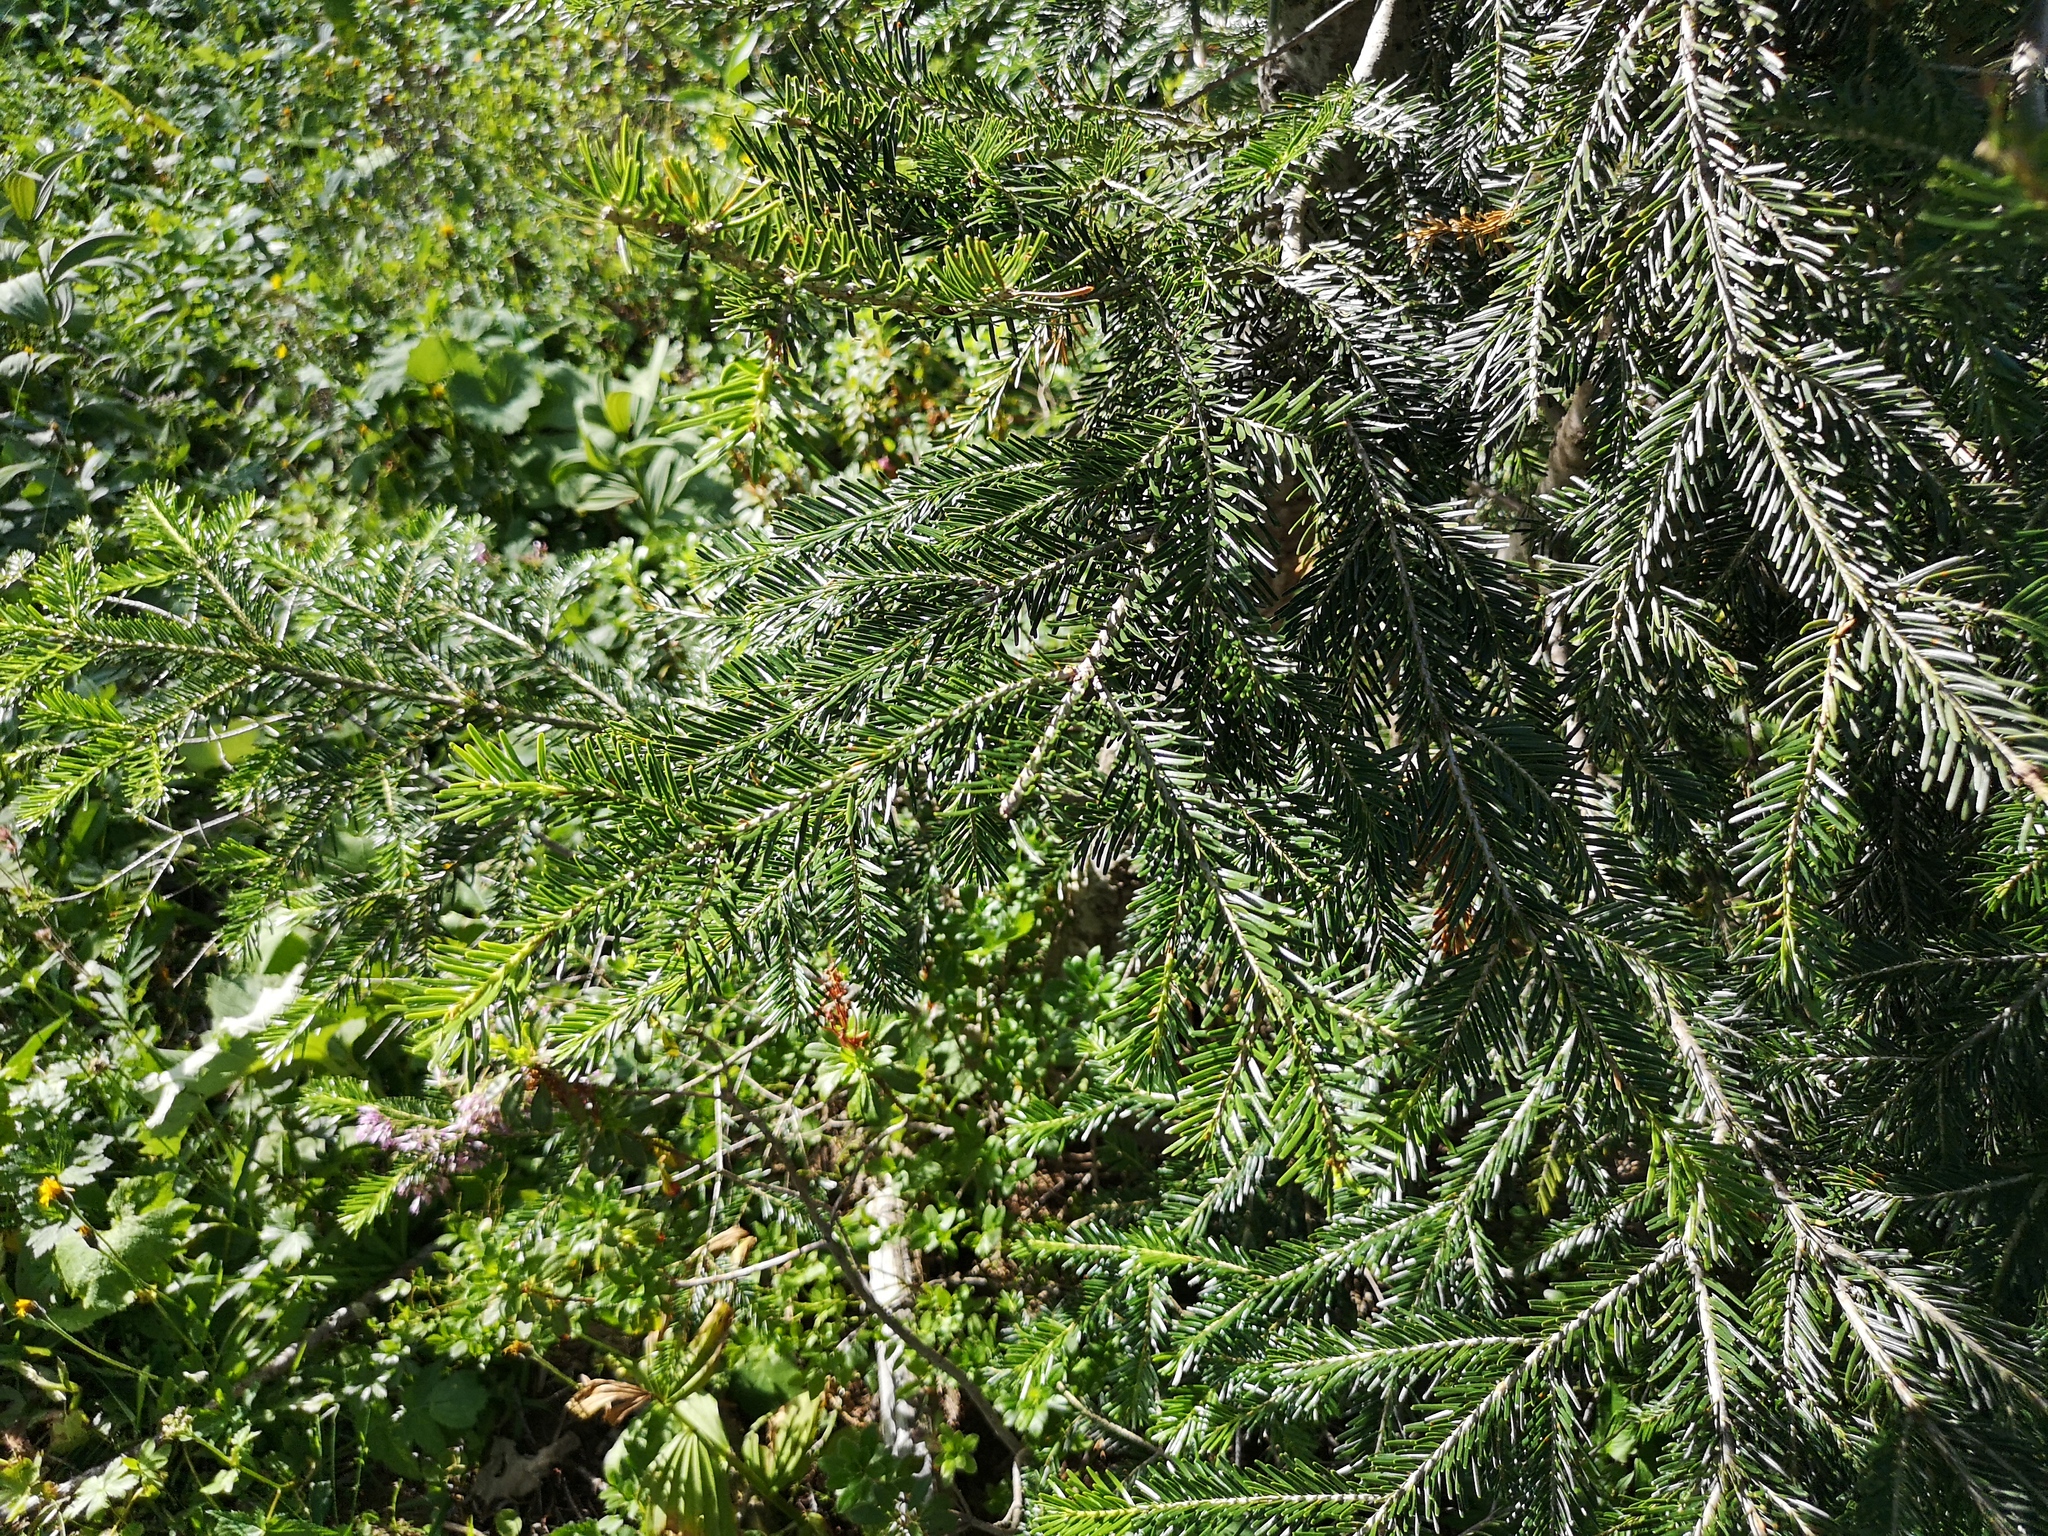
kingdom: Plantae
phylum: Tracheophyta
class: Pinopsida
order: Pinales
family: Pinaceae
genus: Abies
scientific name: Abies alba
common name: Silver fir
